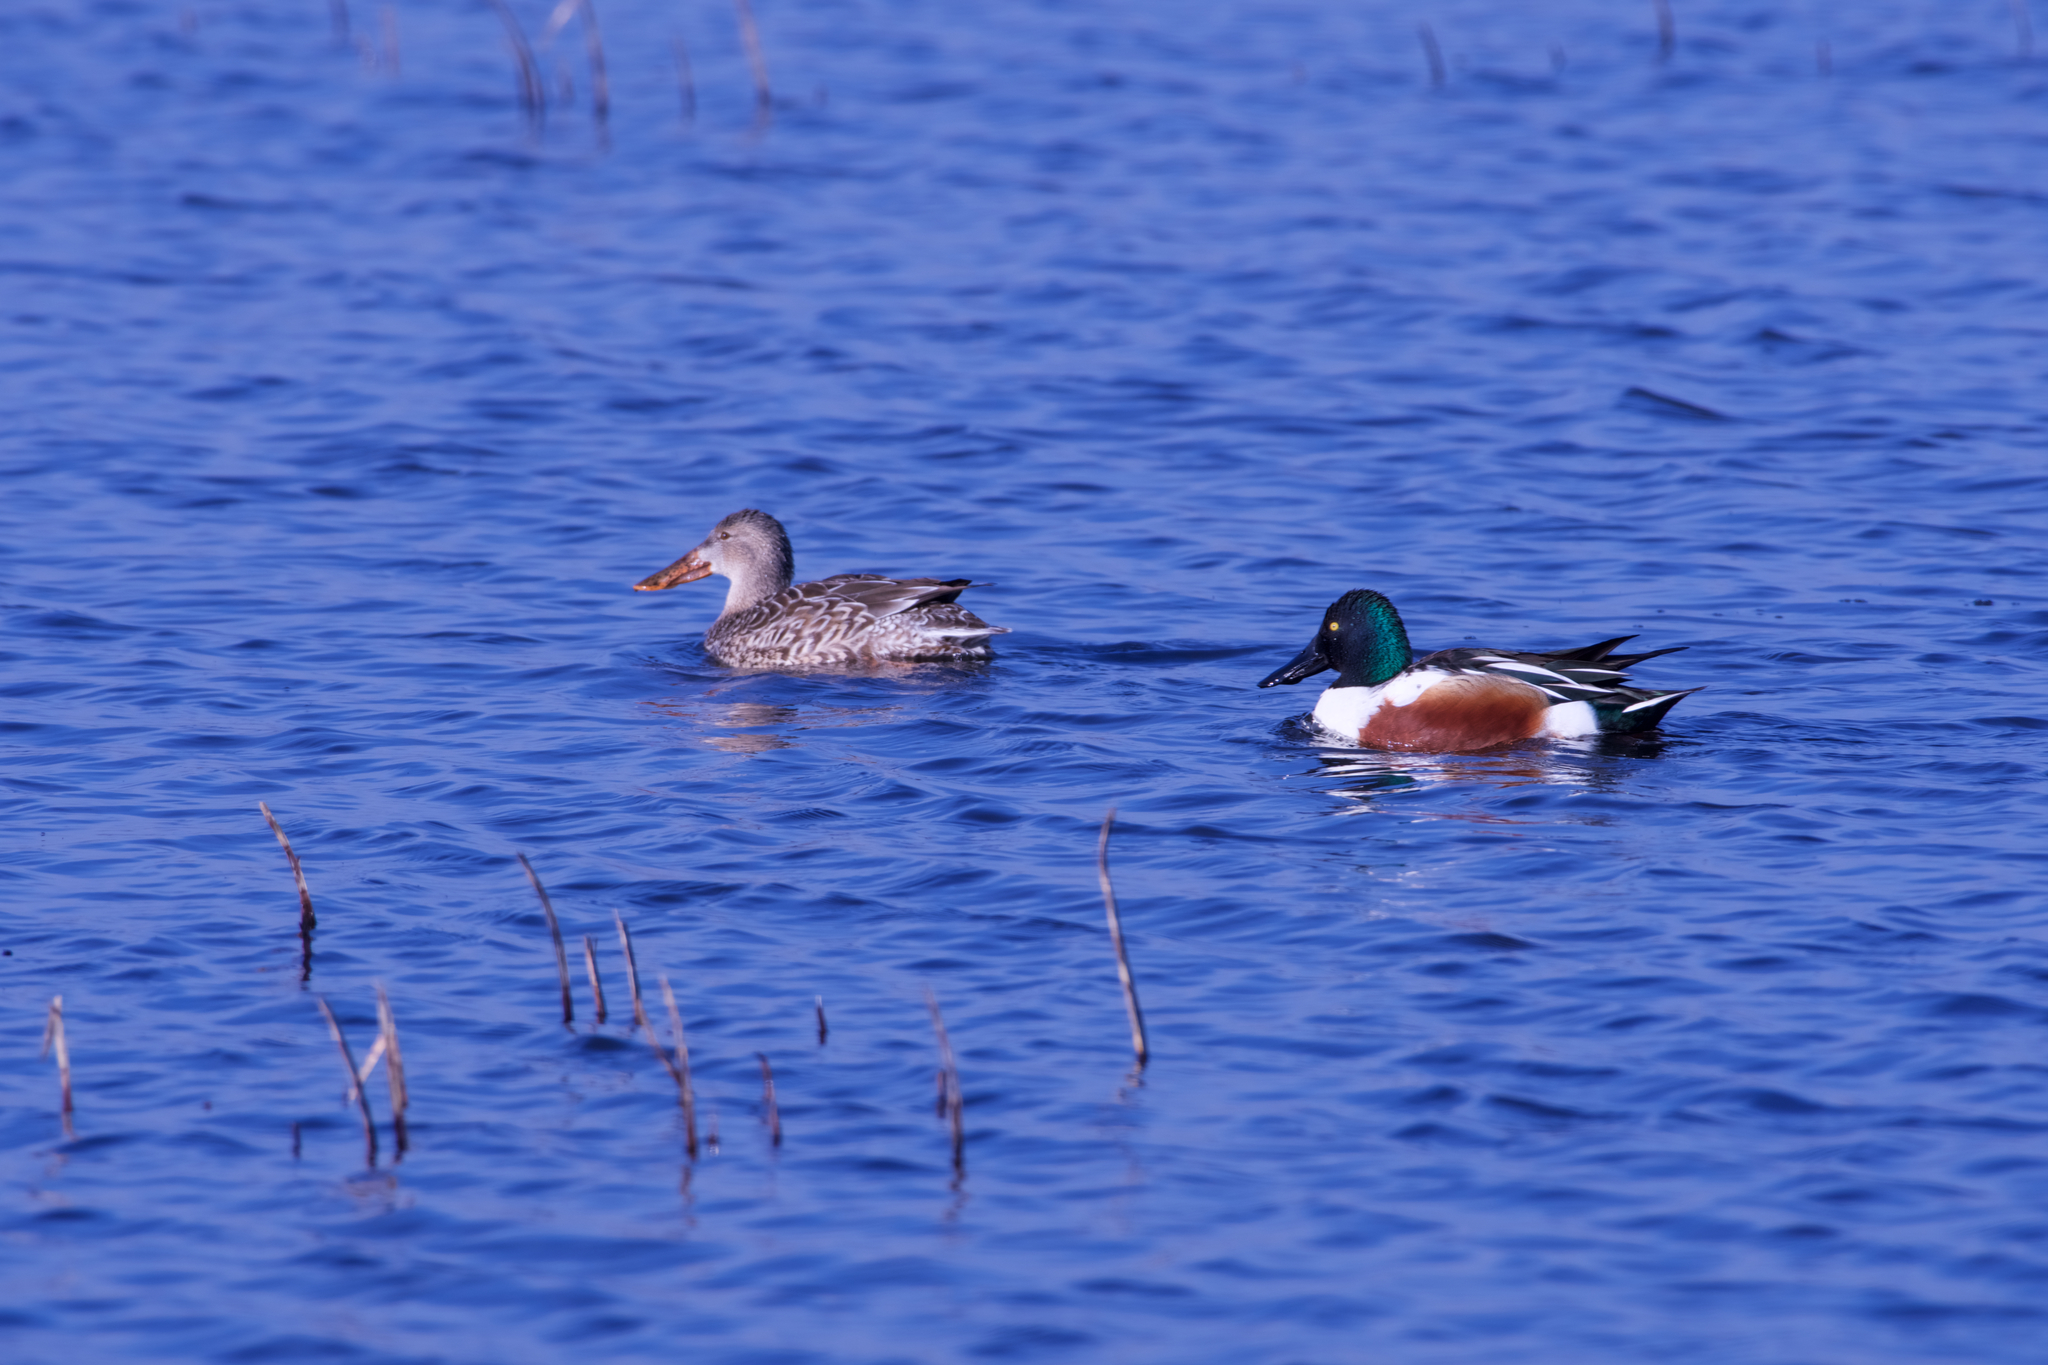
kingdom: Animalia
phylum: Chordata
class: Aves
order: Anseriformes
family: Anatidae
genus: Spatula
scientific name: Spatula clypeata
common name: Northern shoveler
